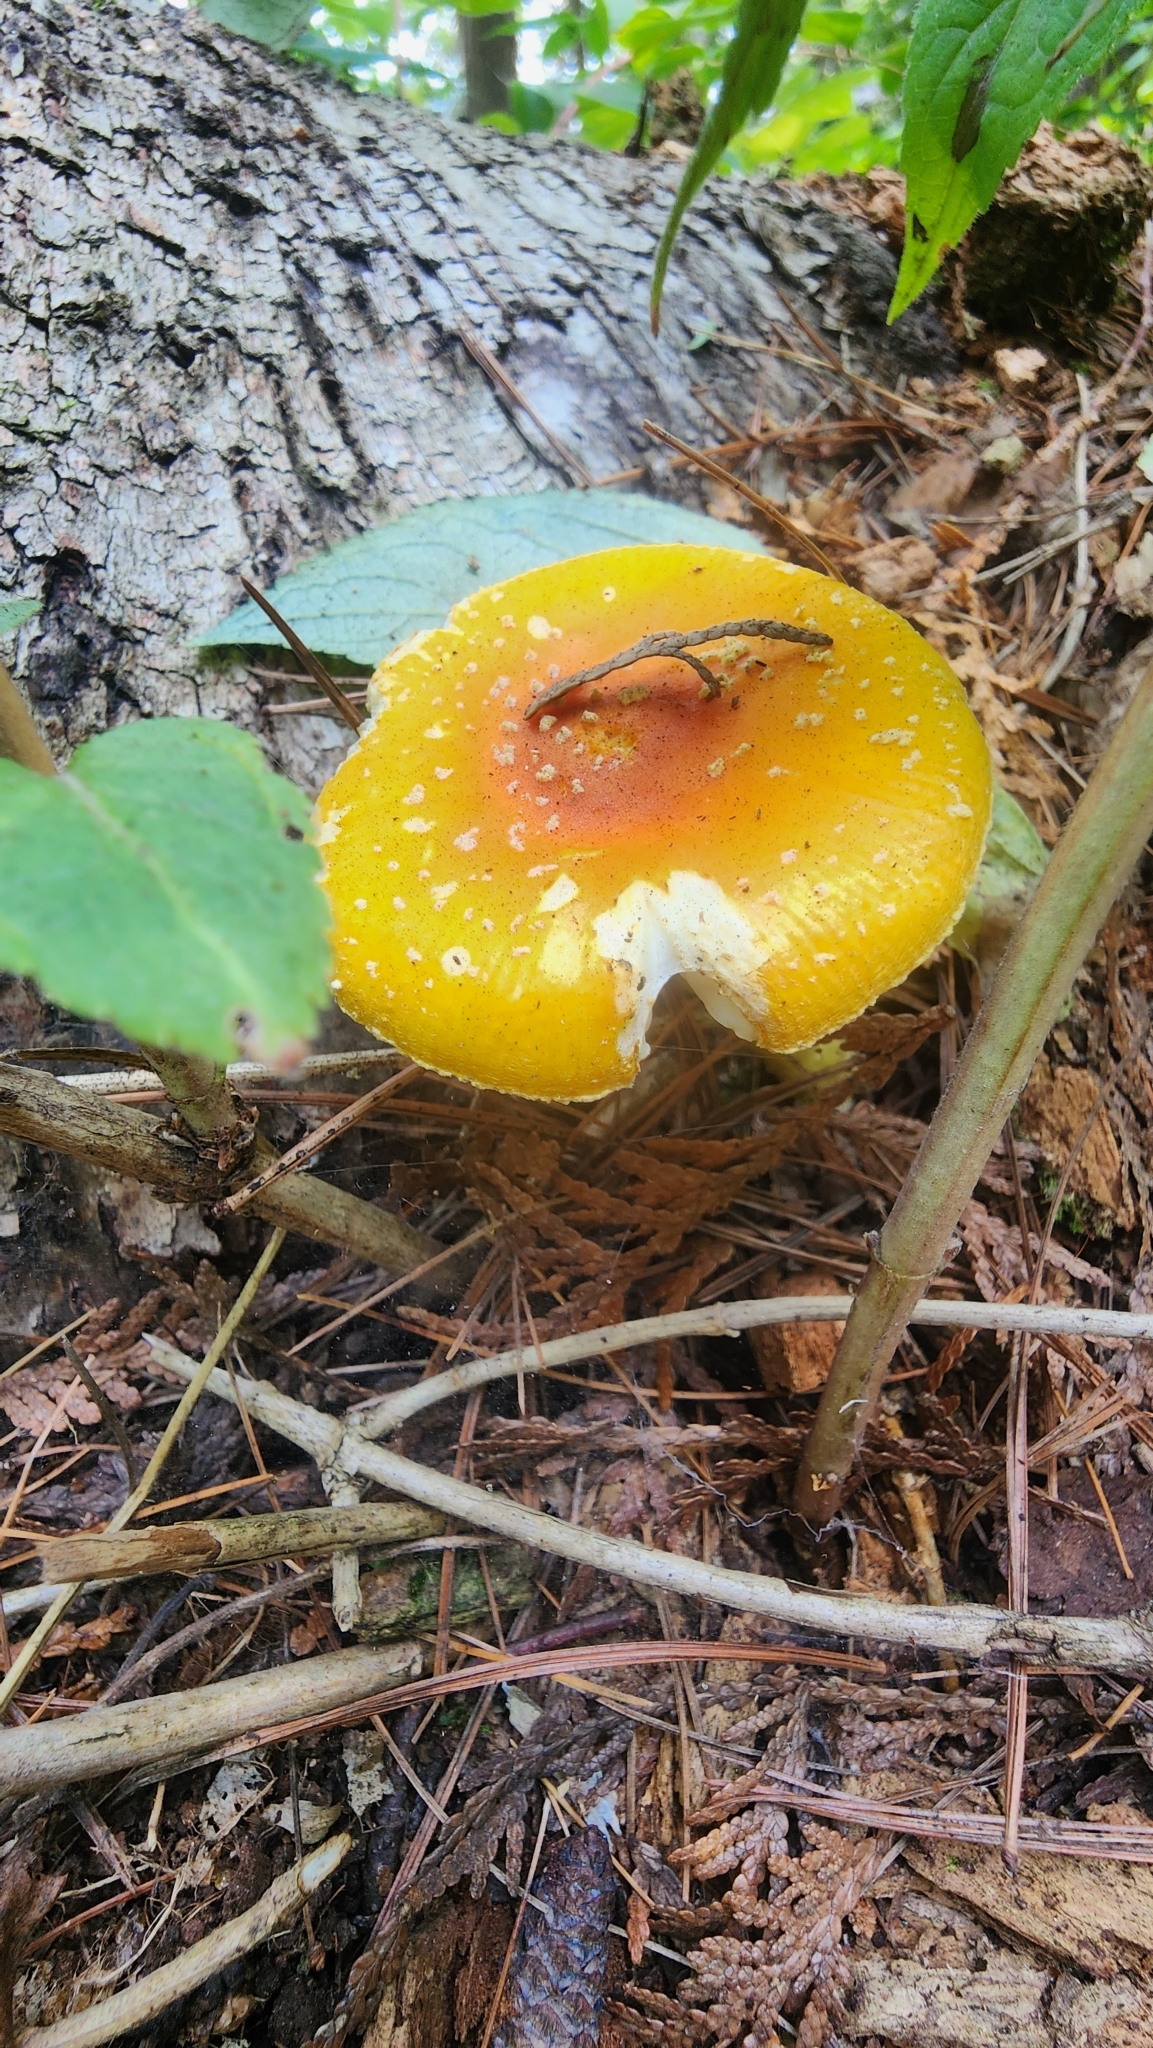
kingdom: Fungi
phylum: Basidiomycota
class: Agaricomycetes
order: Agaricales
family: Amanitaceae
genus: Amanita
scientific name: Amanita frostiana
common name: Frost's amanita
